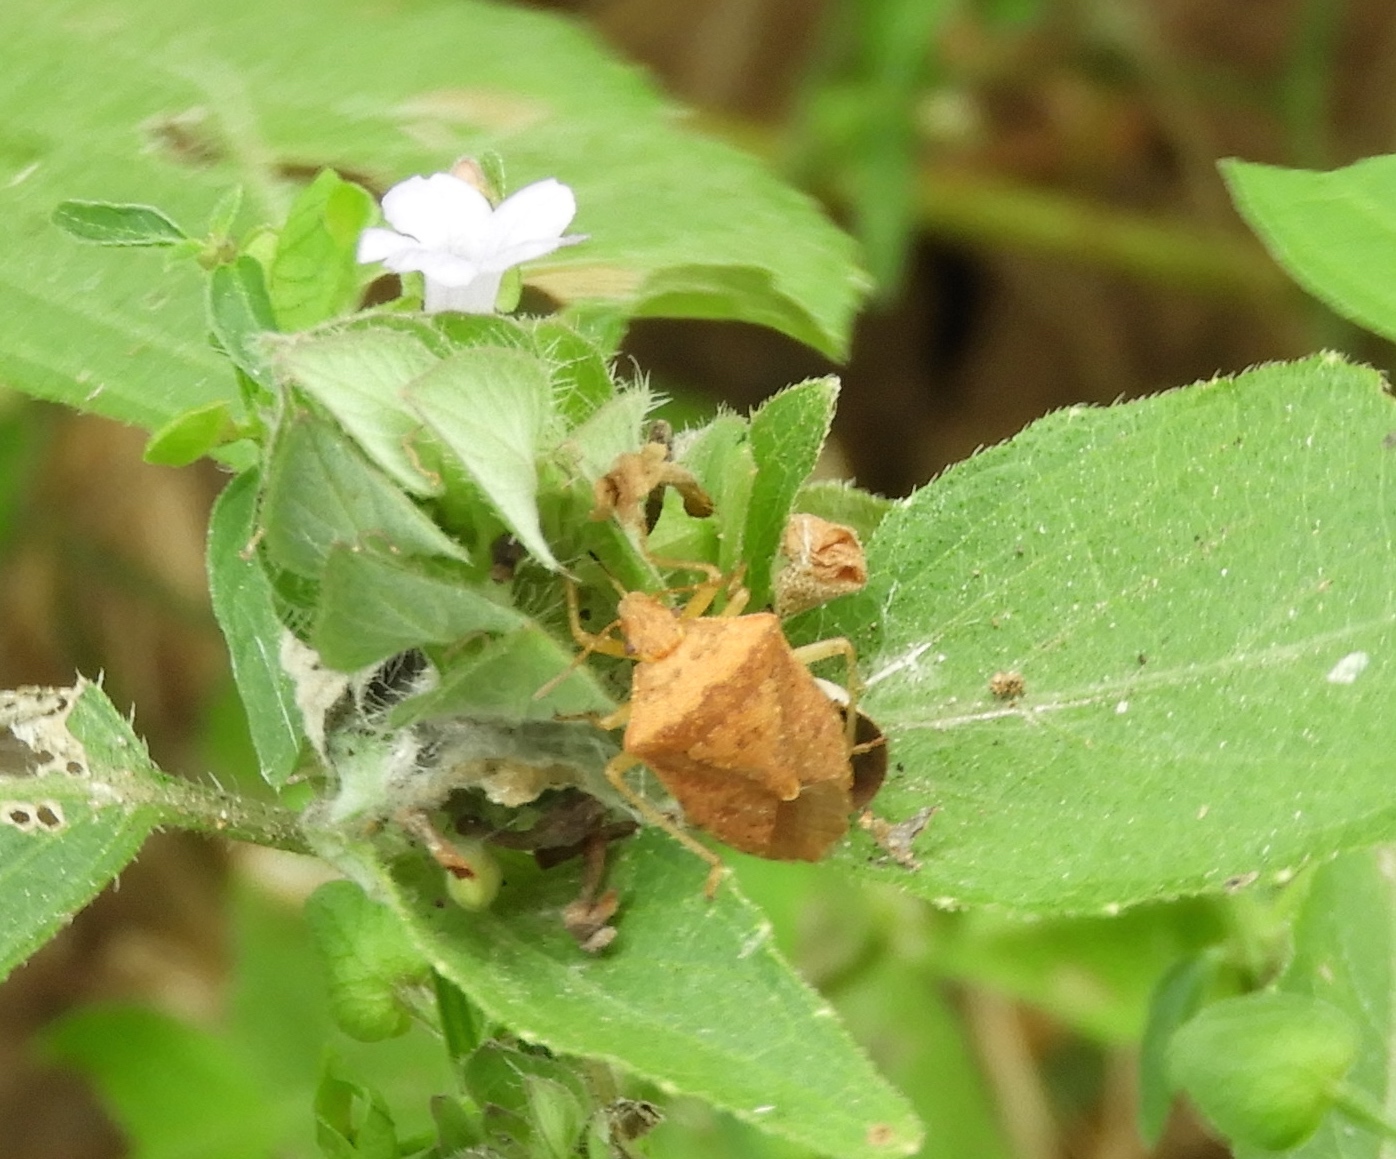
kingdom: Animalia
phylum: Arthropoda
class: Insecta
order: Hemiptera
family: Pentatomidae
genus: Euschistus
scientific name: Euschistus
